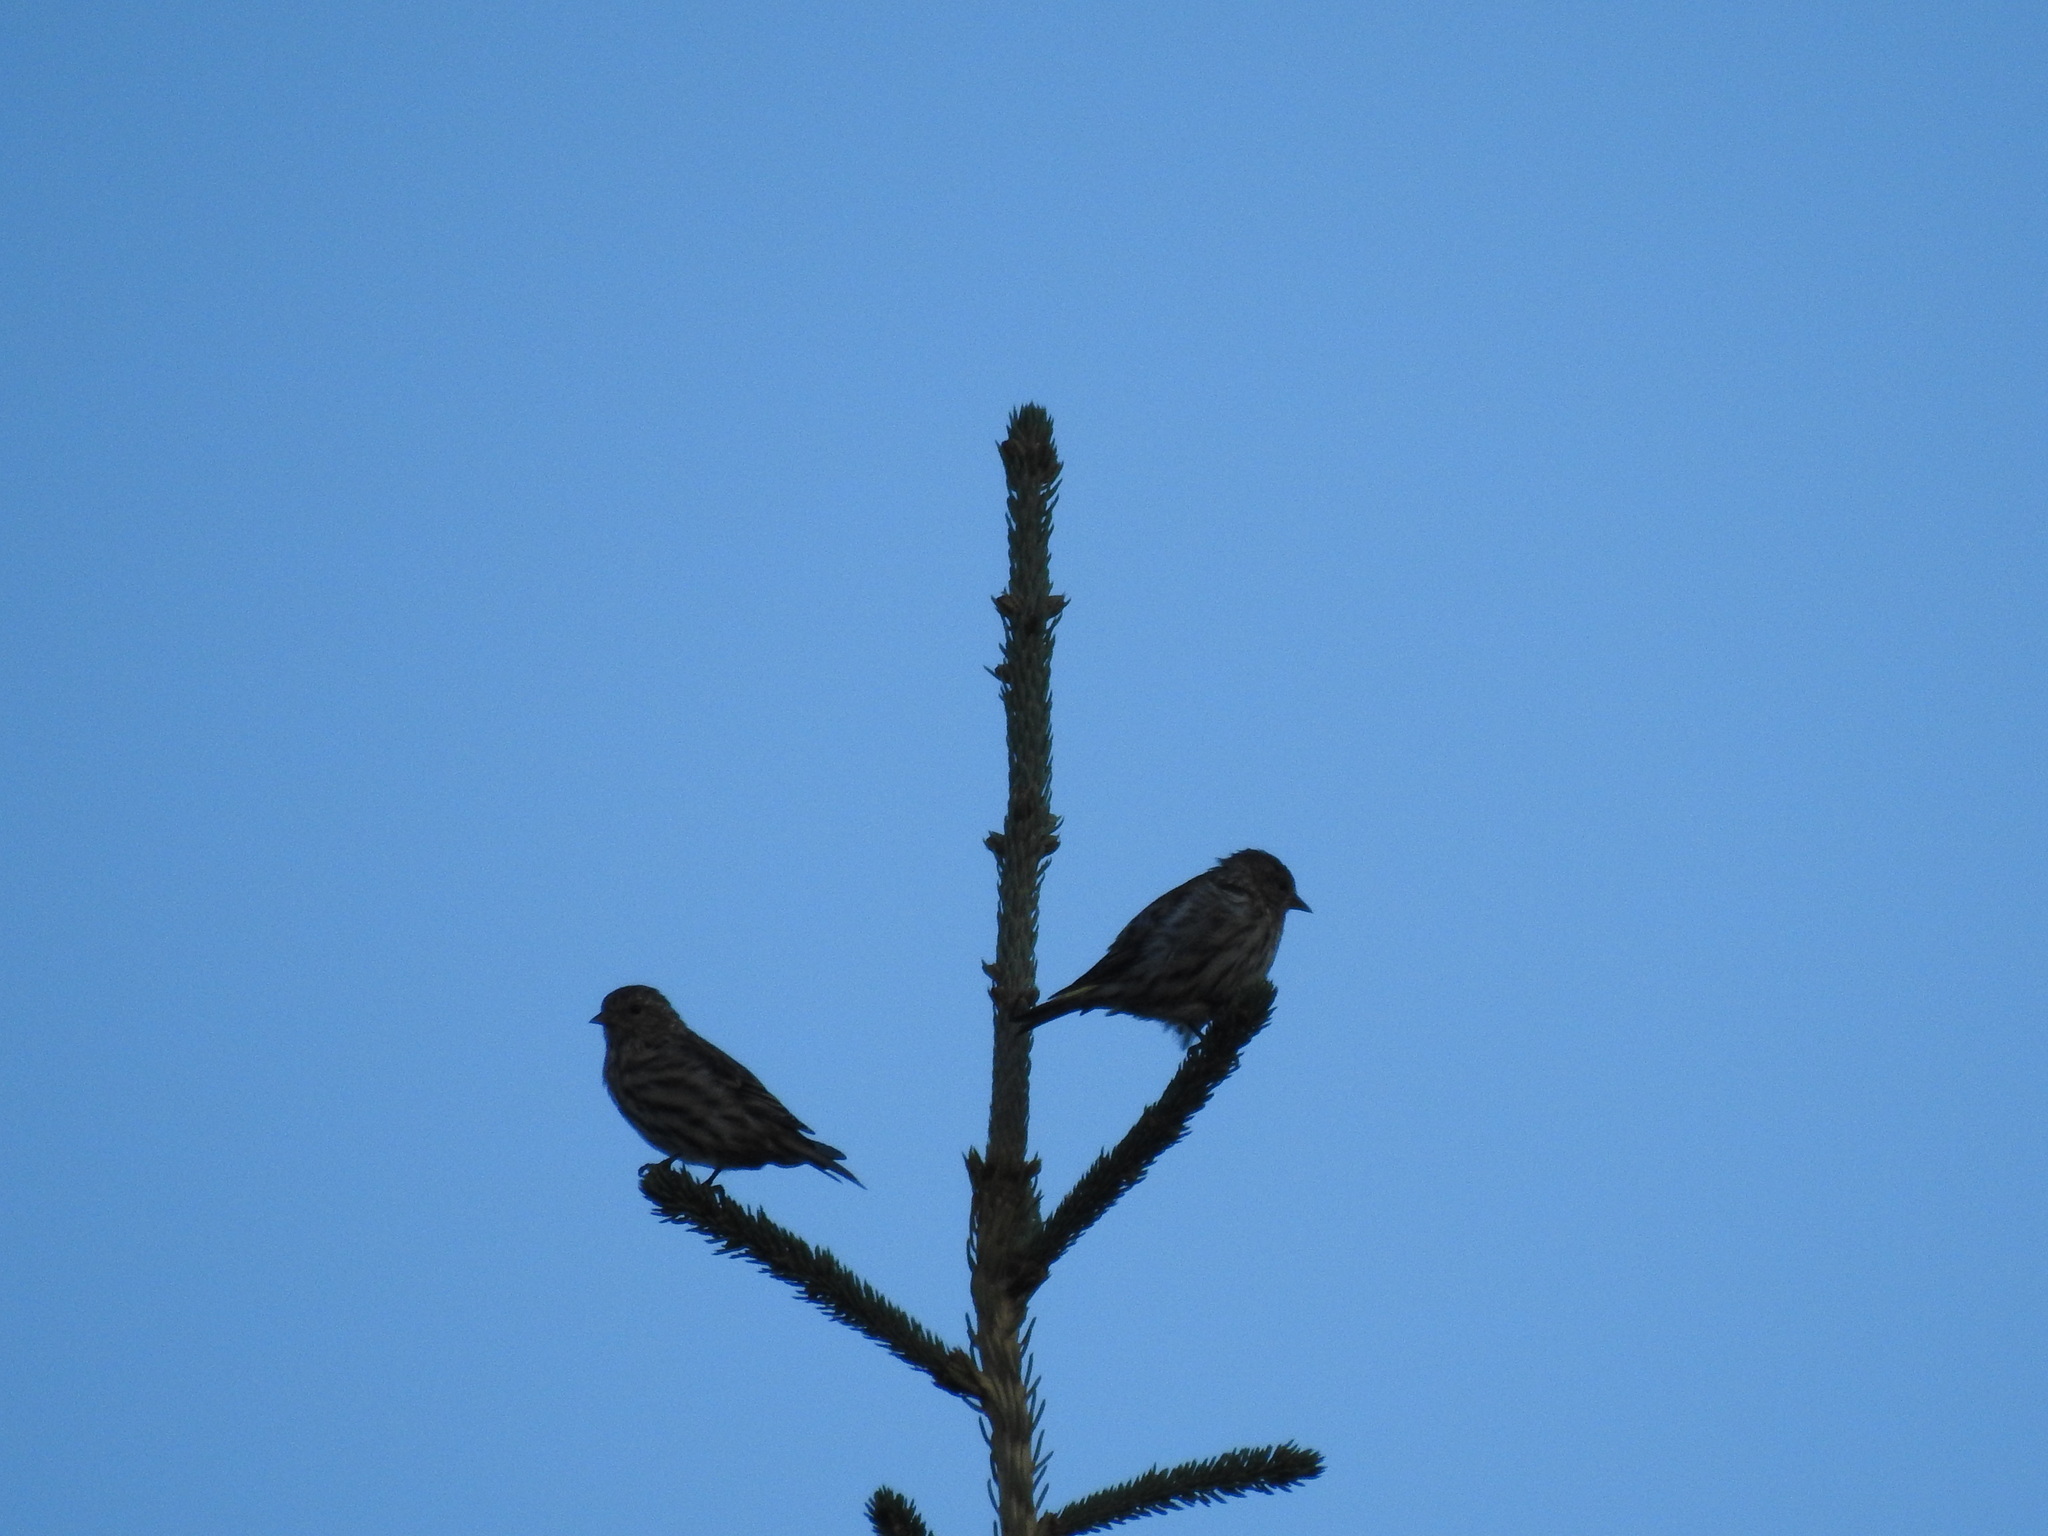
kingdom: Animalia
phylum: Chordata
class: Aves
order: Passeriformes
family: Fringillidae
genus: Spinus
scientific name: Spinus pinus
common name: Pine siskin
